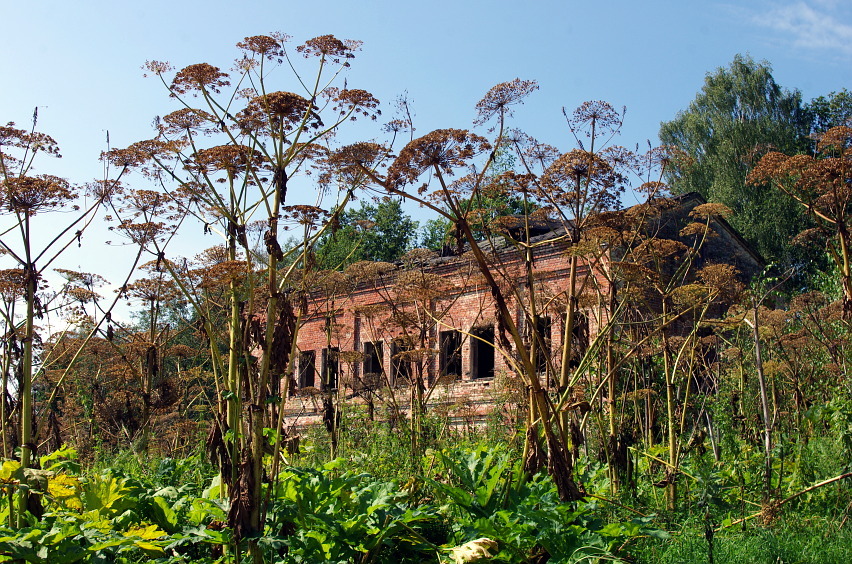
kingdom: Plantae
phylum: Tracheophyta
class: Magnoliopsida
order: Apiales
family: Apiaceae
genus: Heracleum
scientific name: Heracleum sosnowskyi
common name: Sosnowsky's hogweed
